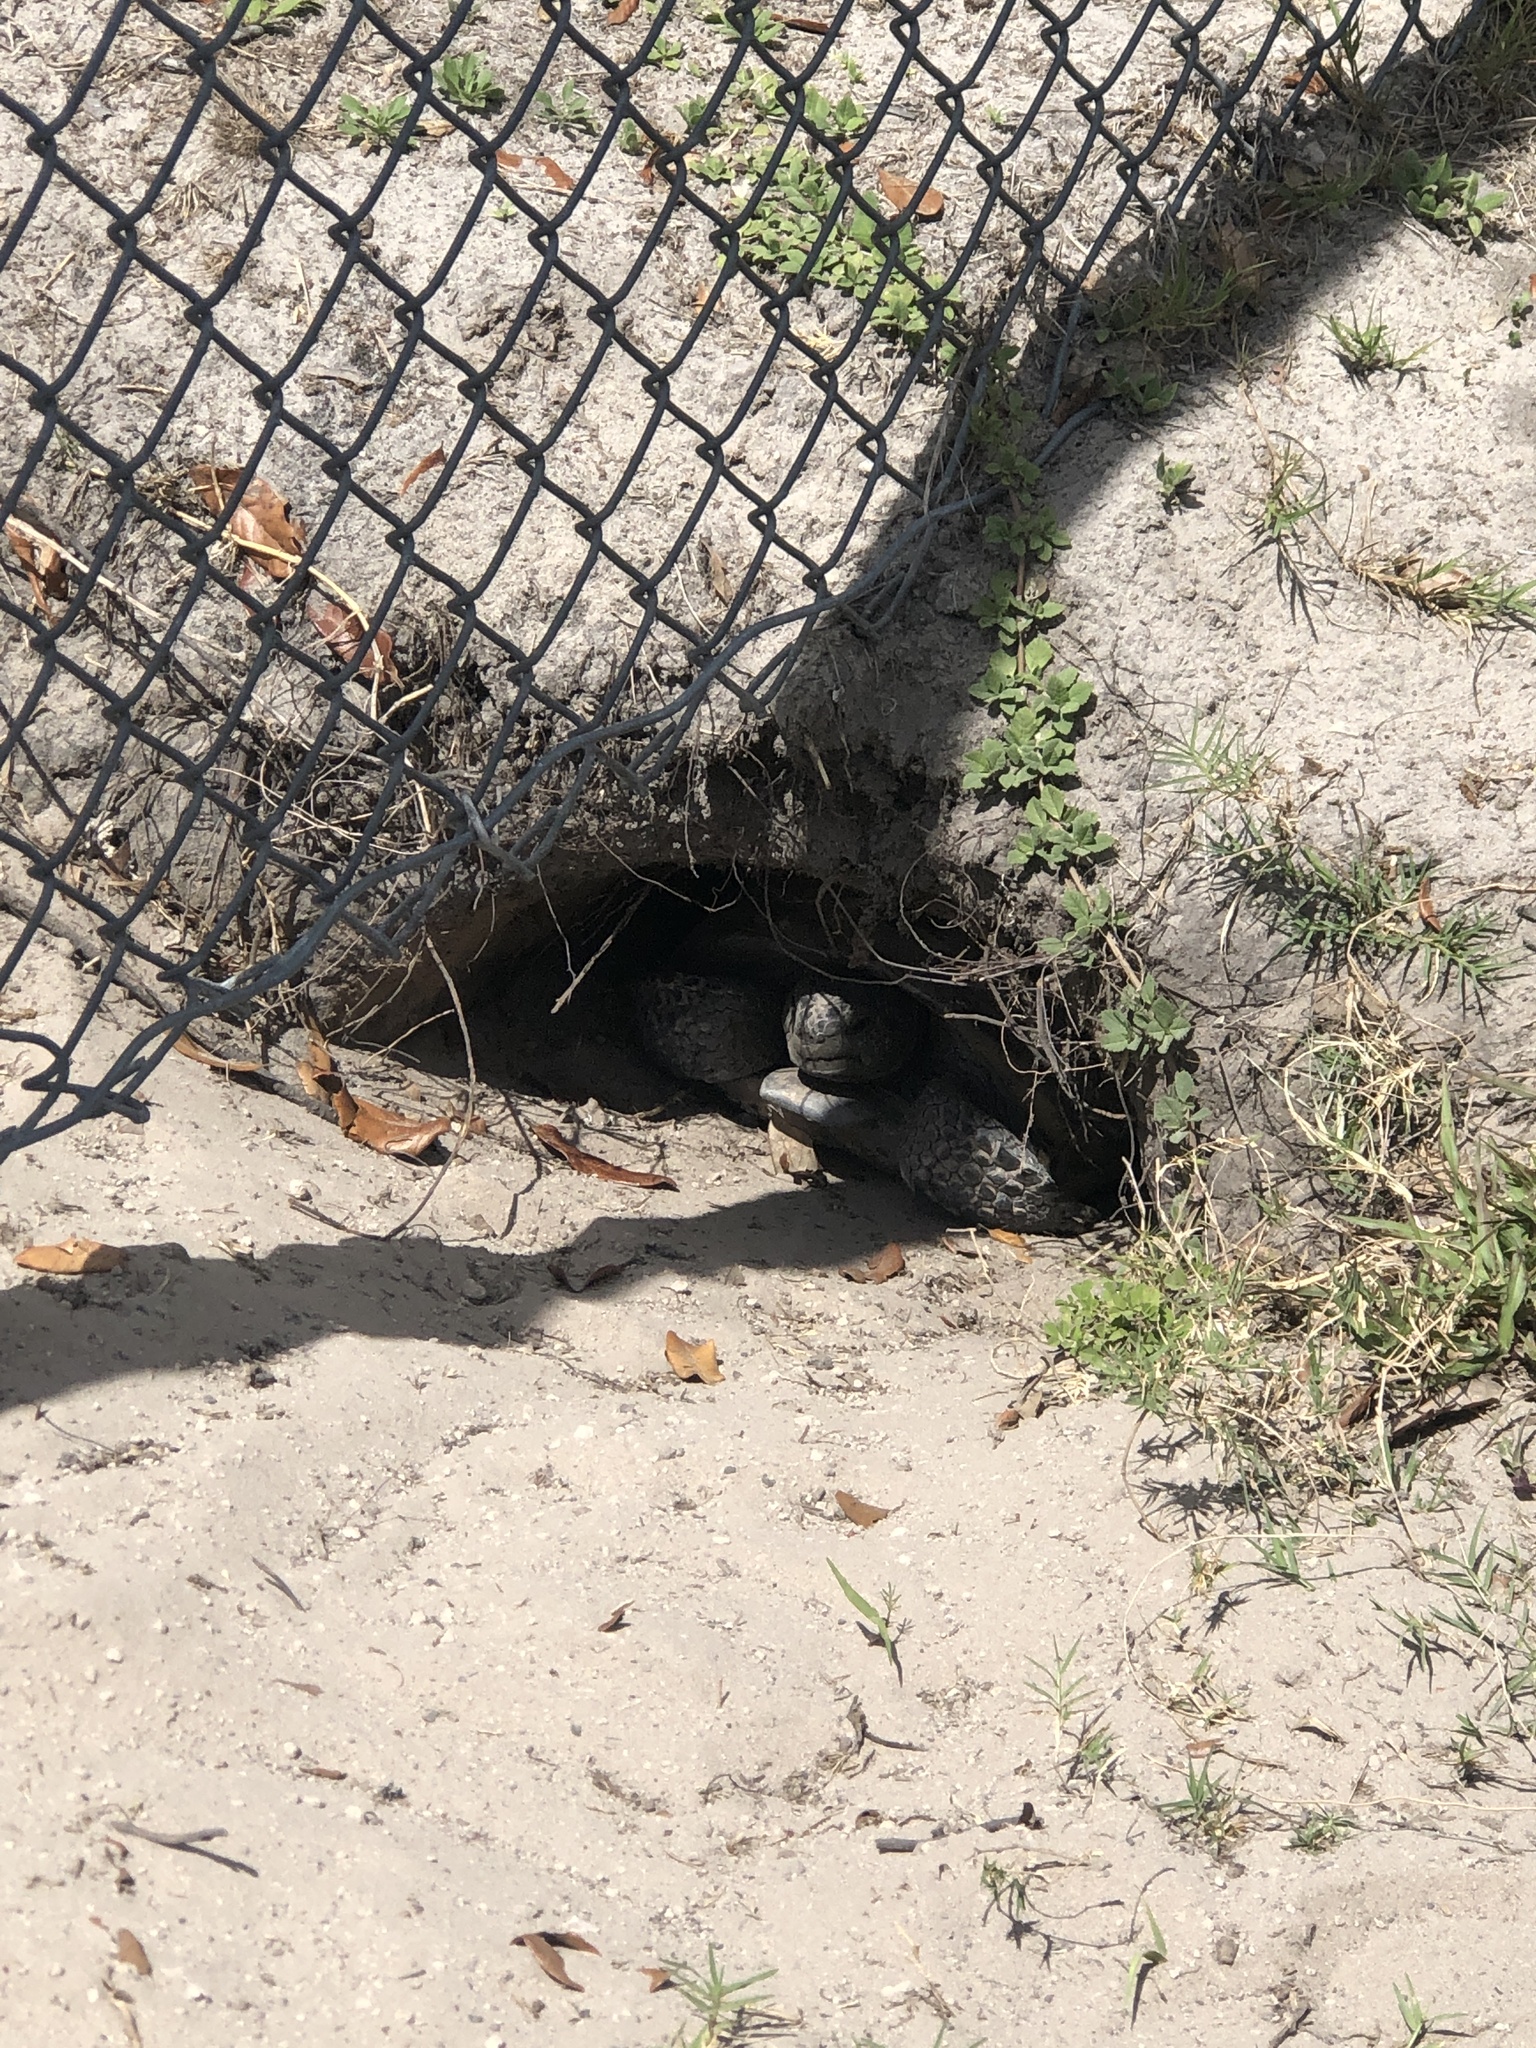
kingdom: Animalia
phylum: Chordata
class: Testudines
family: Testudinidae
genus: Gopherus
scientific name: Gopherus polyphemus
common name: Florida gopher tortoise
